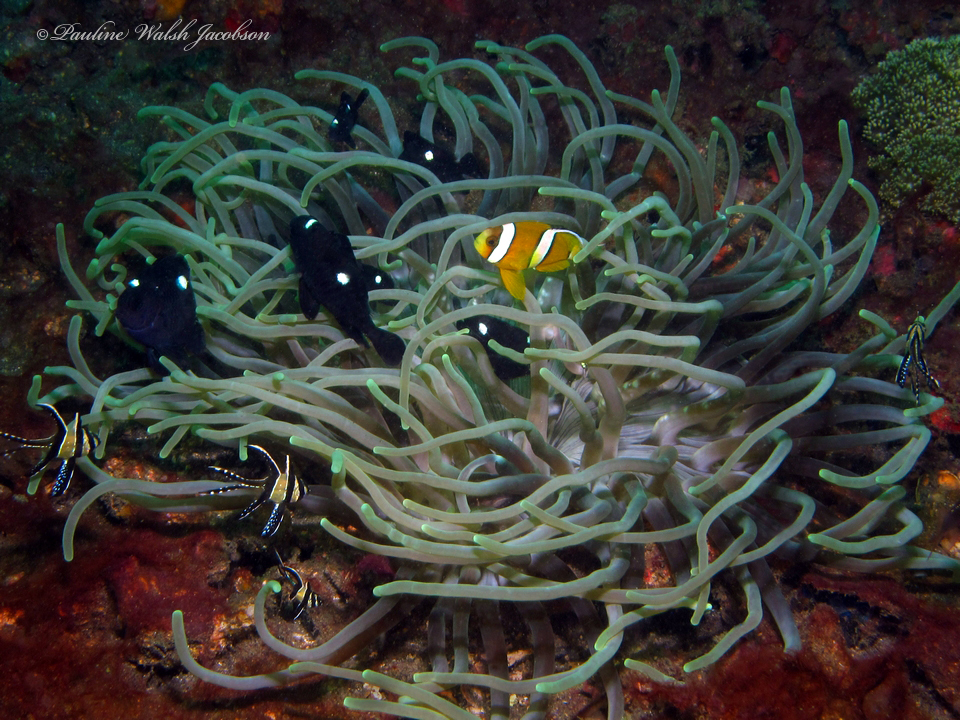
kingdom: Animalia
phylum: Chordata
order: Perciformes
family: Pomacentridae
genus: Dascyllus
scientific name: Dascyllus trimaculatus
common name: Threespot dascyllus
